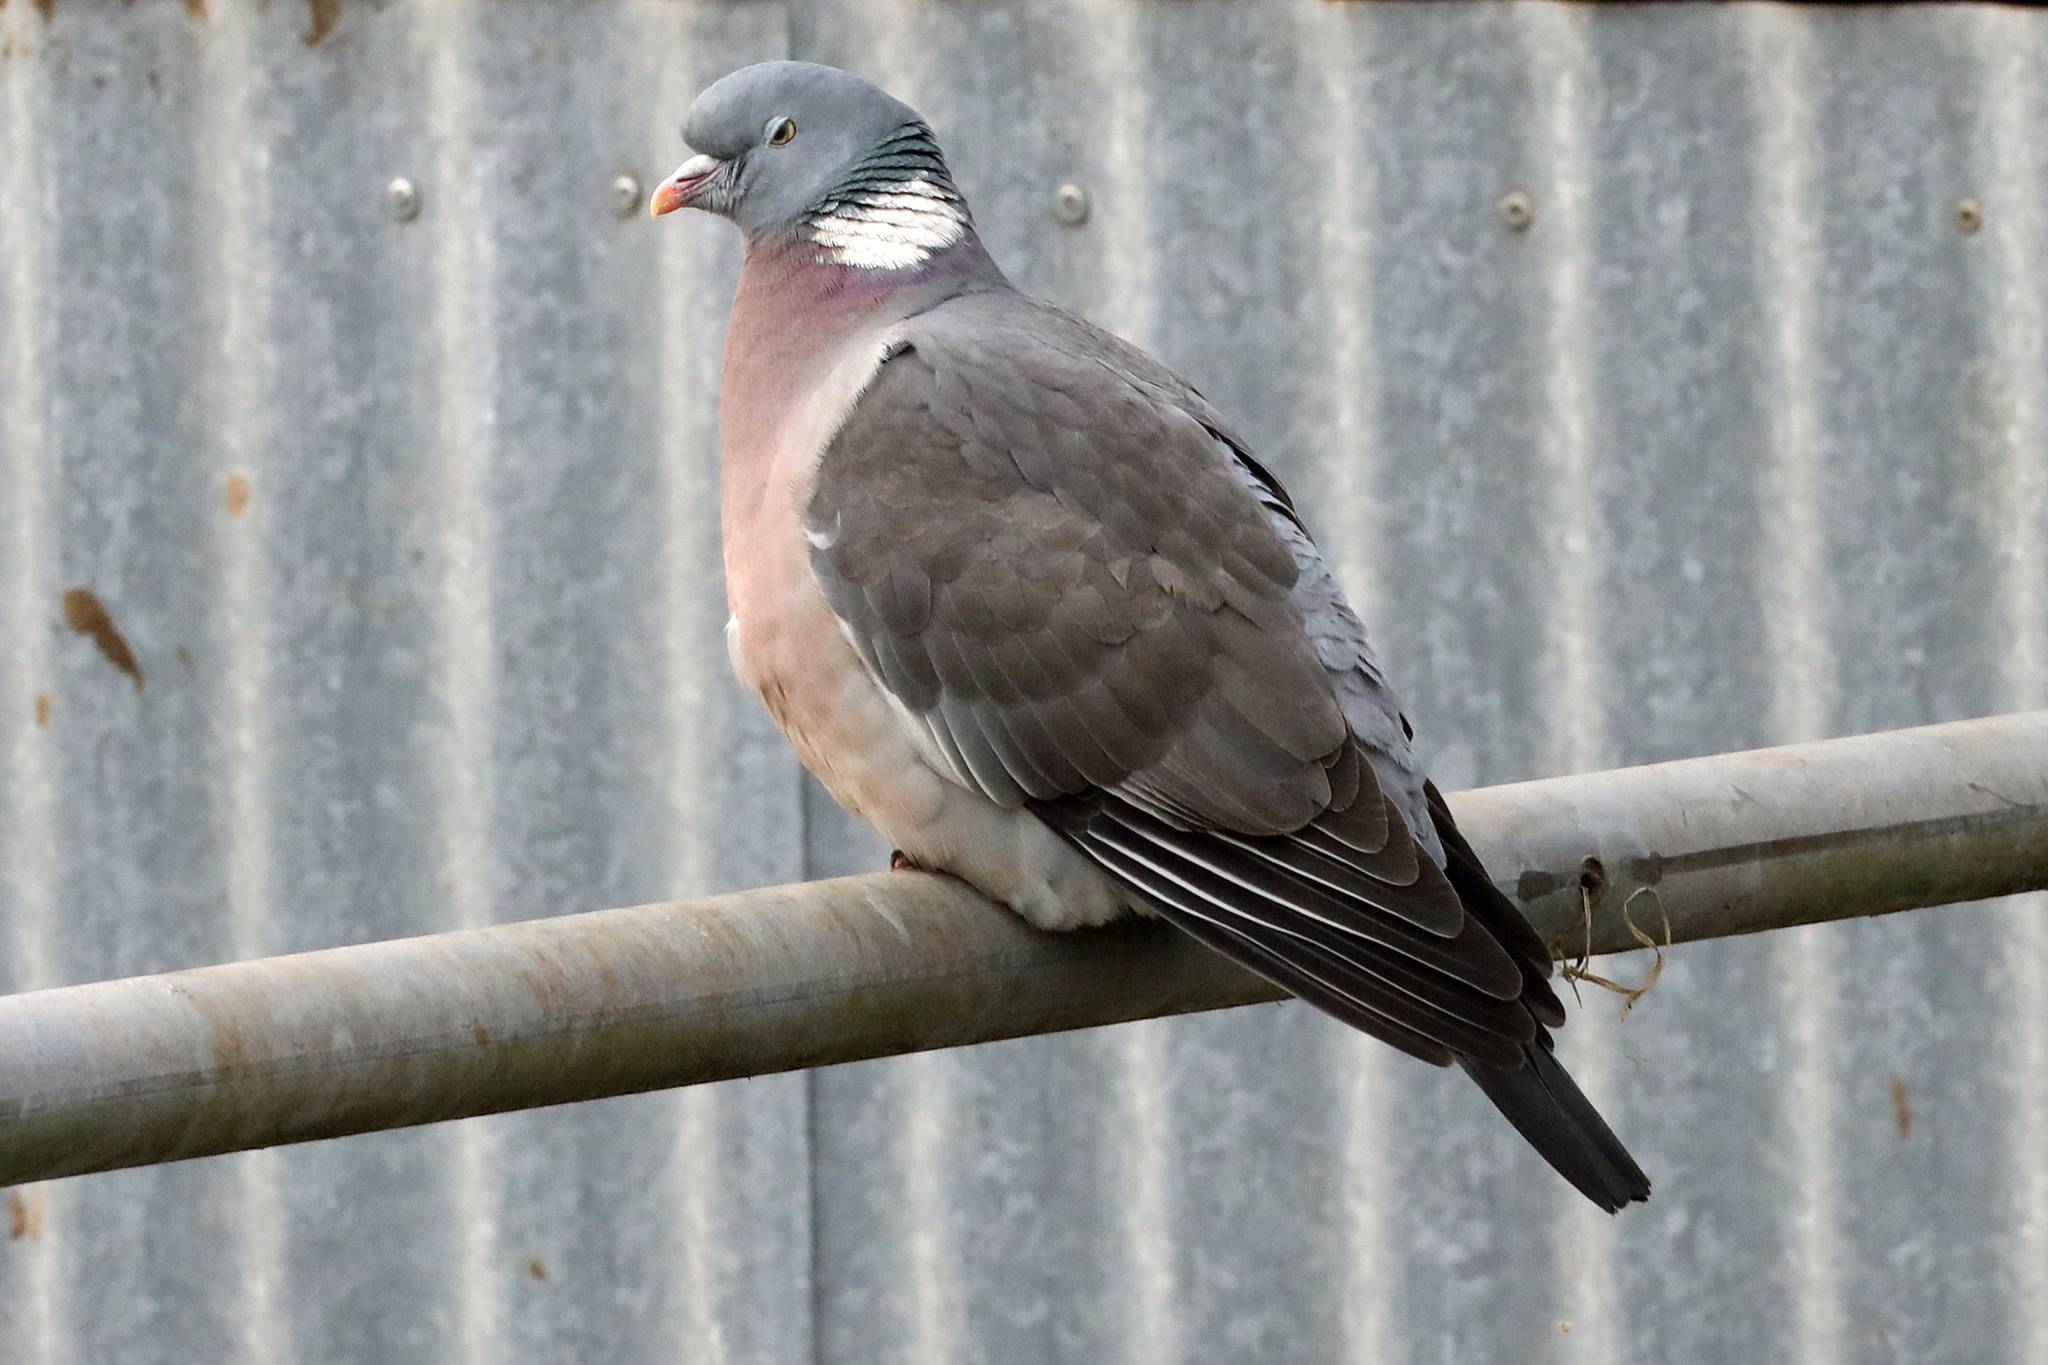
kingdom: Animalia
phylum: Chordata
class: Aves
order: Columbiformes
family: Columbidae
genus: Columba
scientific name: Columba palumbus
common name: Common wood pigeon
